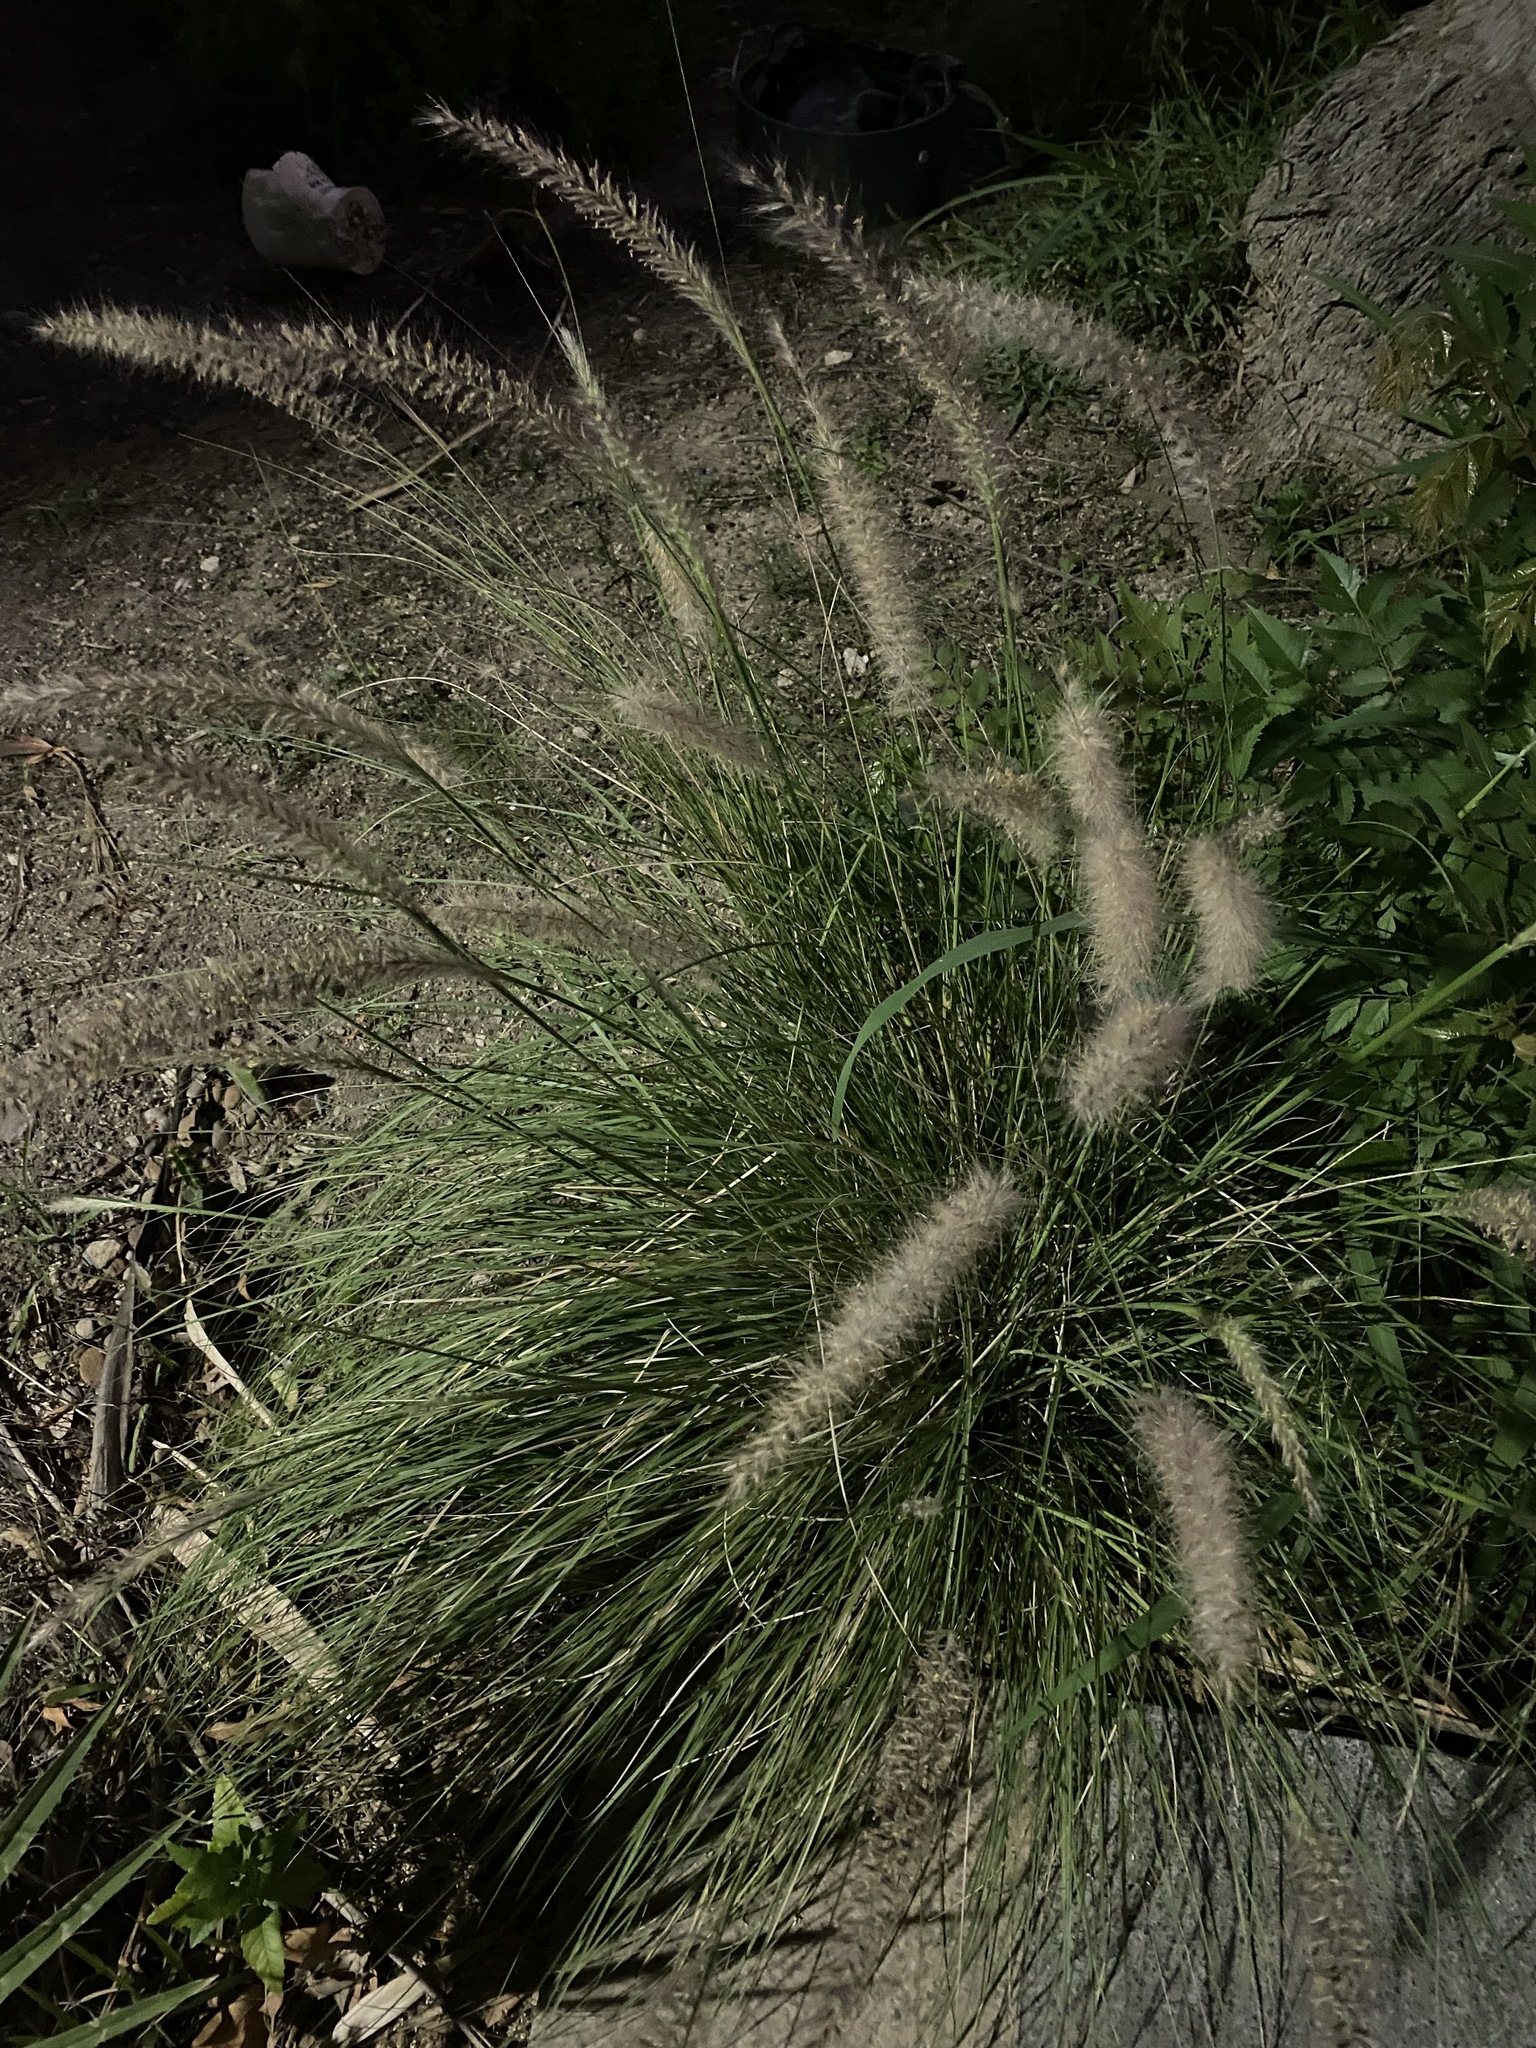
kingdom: Plantae
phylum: Tracheophyta
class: Liliopsida
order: Poales
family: Poaceae
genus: Cenchrus
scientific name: Cenchrus ciliaris
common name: Buffelgrass
